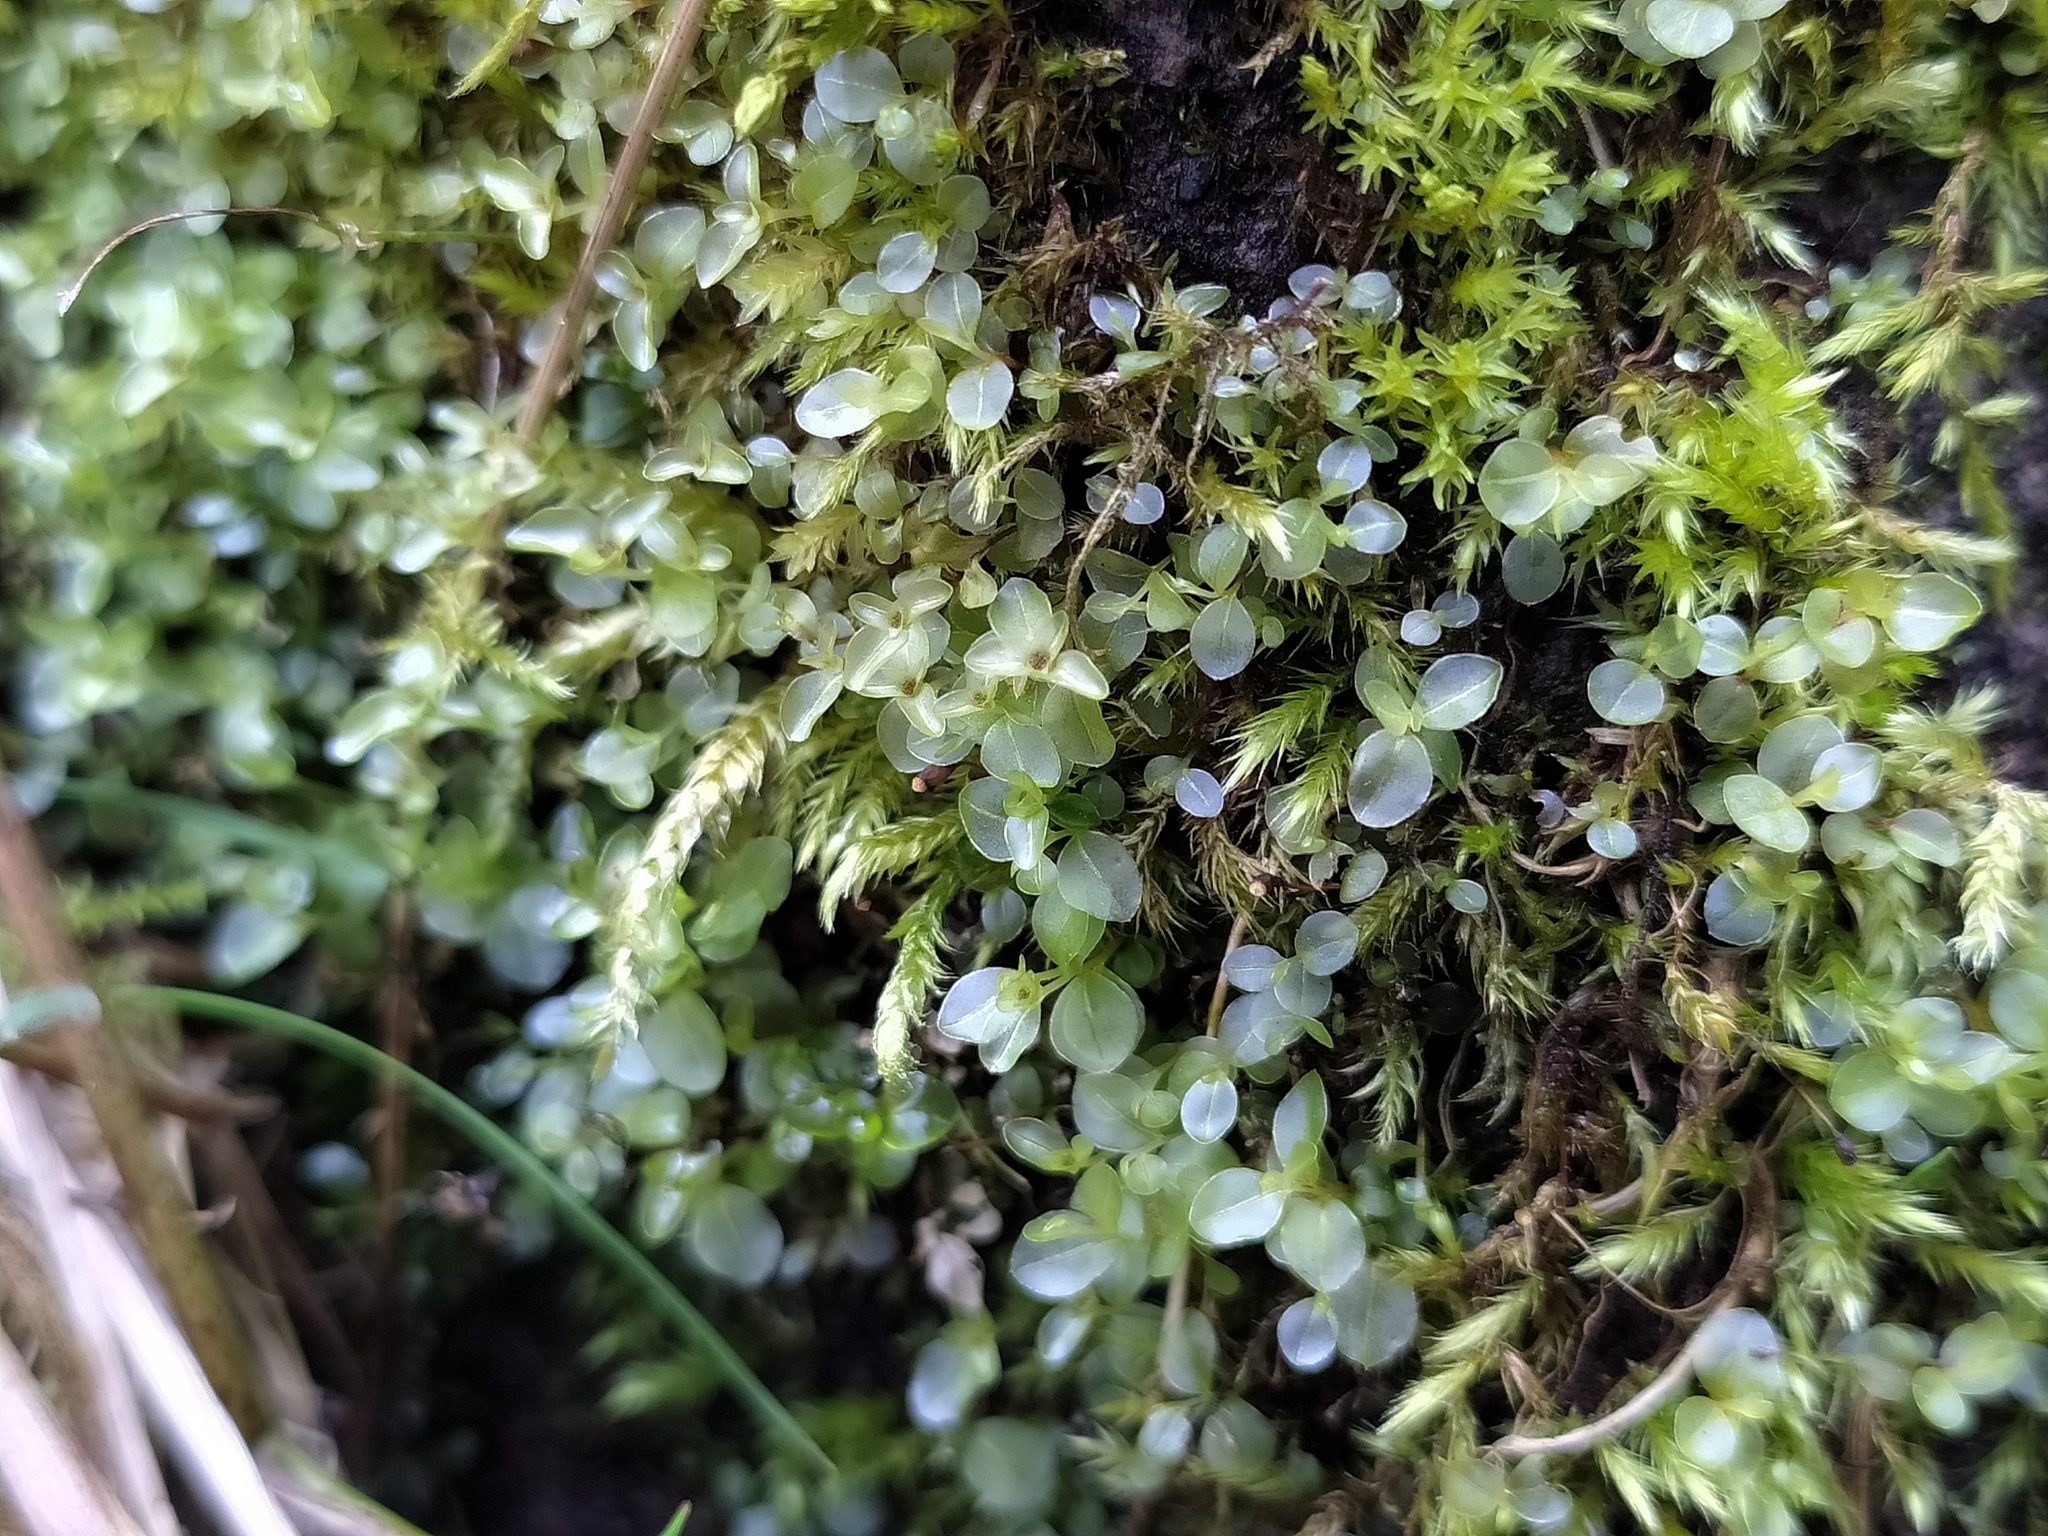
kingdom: Plantae
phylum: Bryophyta
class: Bryopsida
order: Bryales
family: Mniaceae
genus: Rhizomnium
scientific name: Rhizomnium punctatum
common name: Dotted leafy moss
